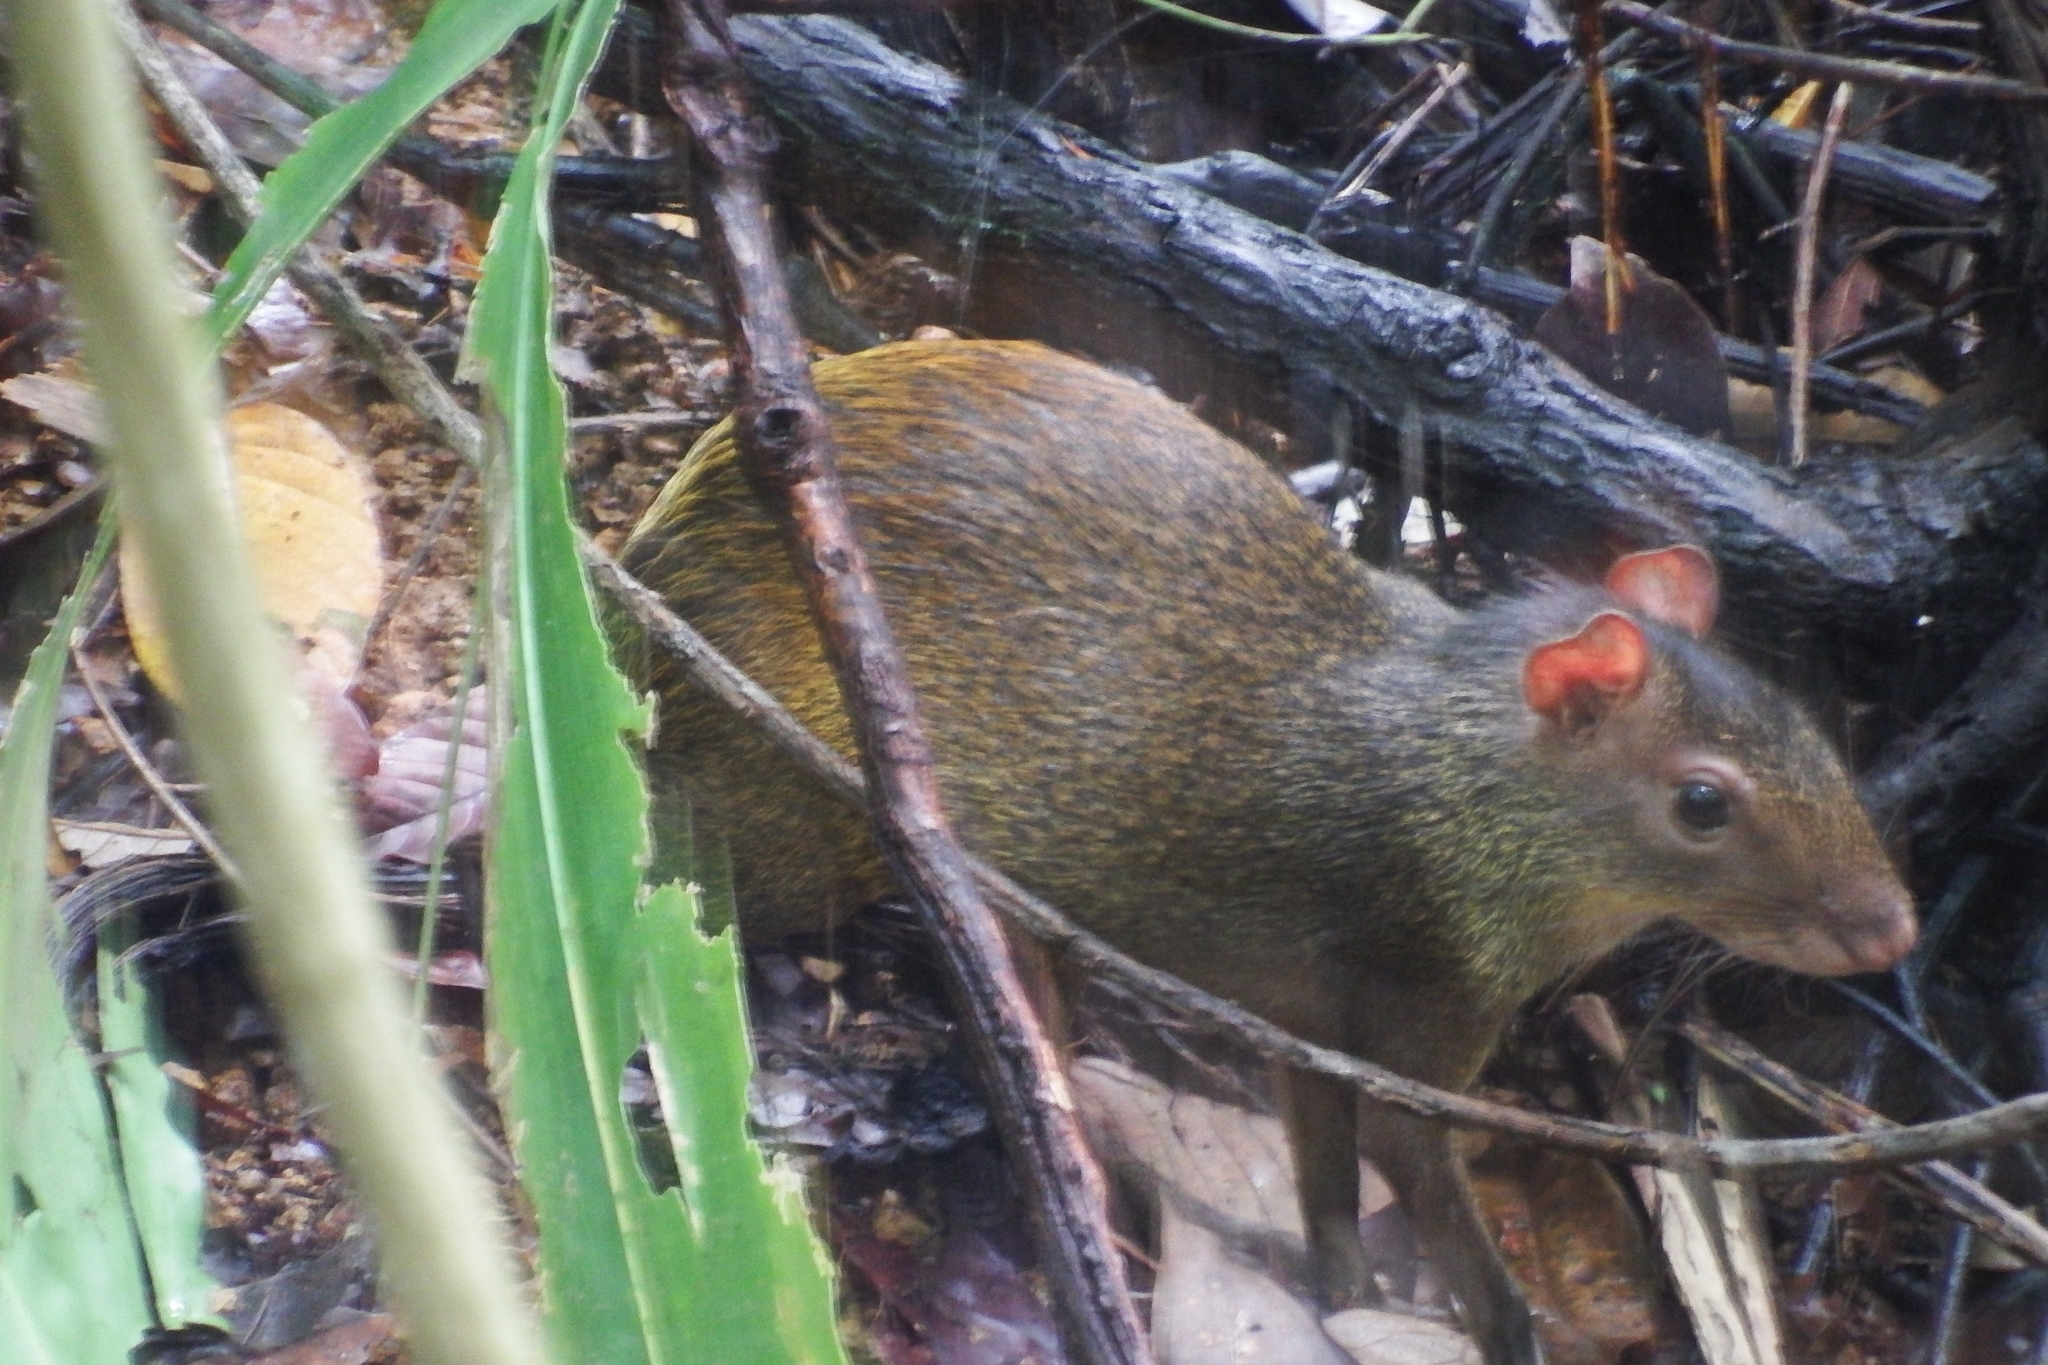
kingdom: Animalia
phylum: Chordata
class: Mammalia
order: Rodentia
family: Dasyproctidae
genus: Dasyprocta
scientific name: Dasyprocta punctata
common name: Central american agouti
